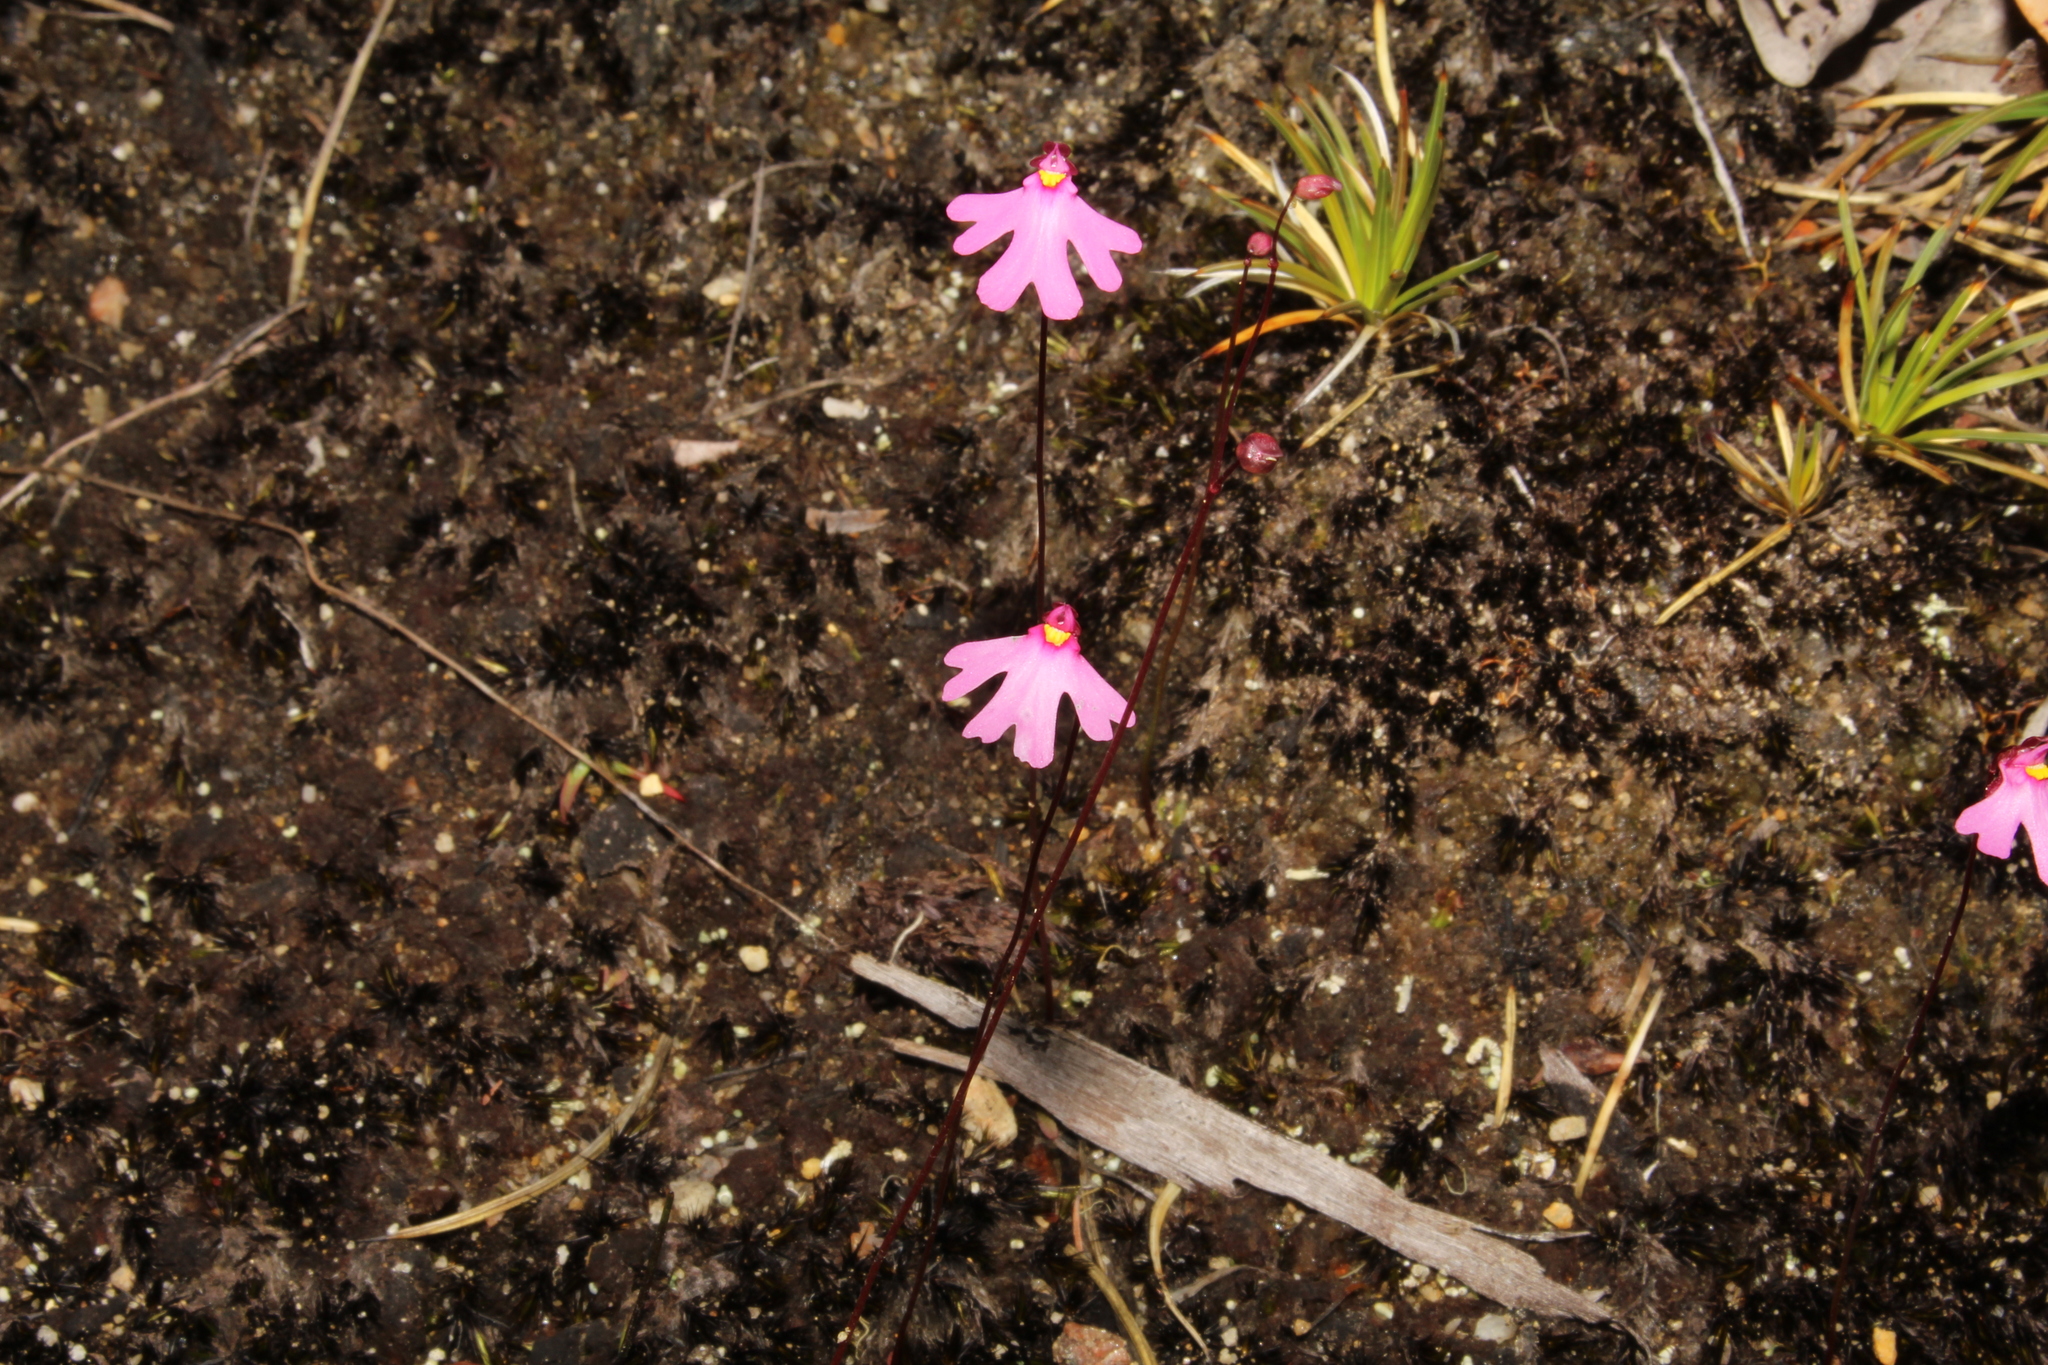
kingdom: Plantae
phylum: Tracheophyta
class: Magnoliopsida
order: Lamiales
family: Lentibulariaceae
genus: Utricularia
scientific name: Utricularia multifida
